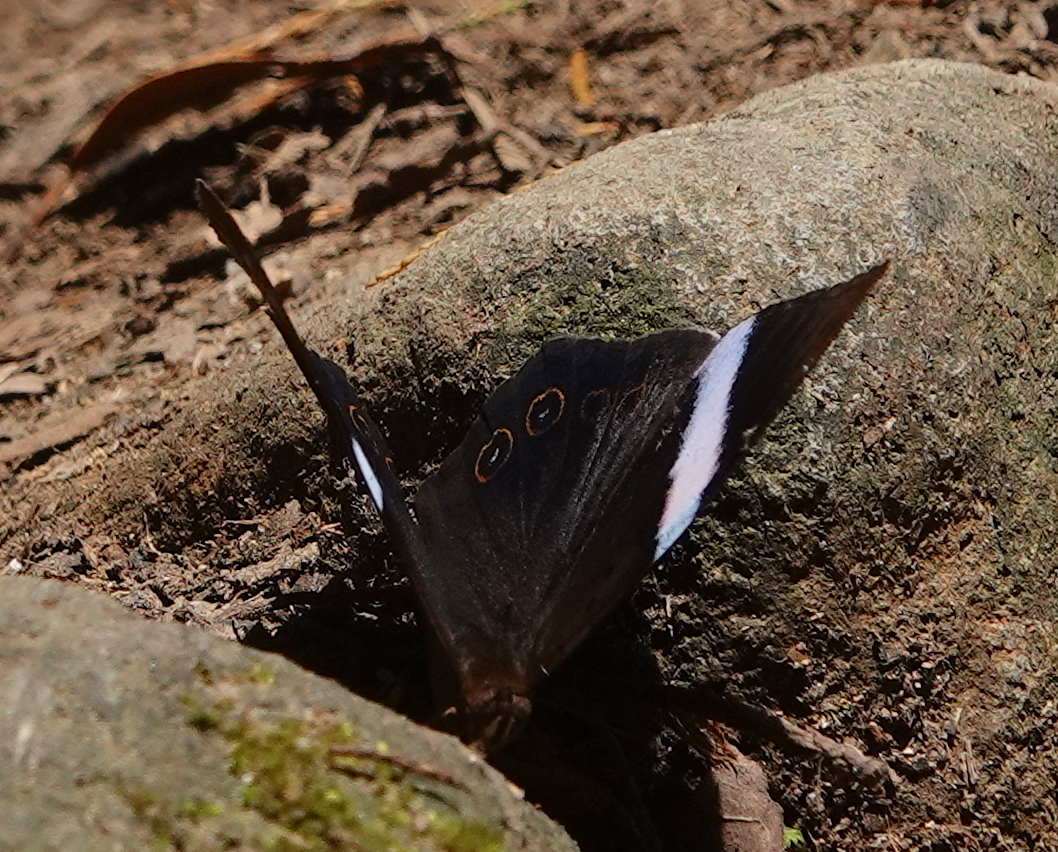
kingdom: Animalia
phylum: Arthropoda
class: Insecta
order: Lepidoptera
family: Nymphalidae
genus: Amnosia
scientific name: Amnosia decora
